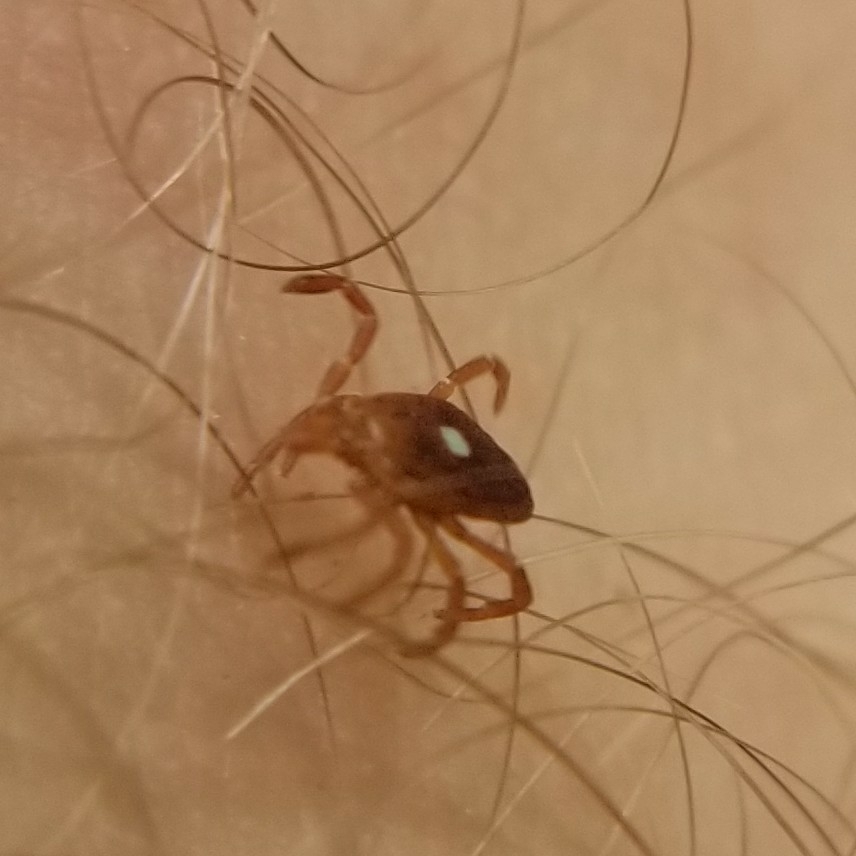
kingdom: Animalia
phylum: Arthropoda
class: Arachnida
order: Ixodida
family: Ixodidae
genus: Amblyomma
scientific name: Amblyomma americanum
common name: Lone star tick
